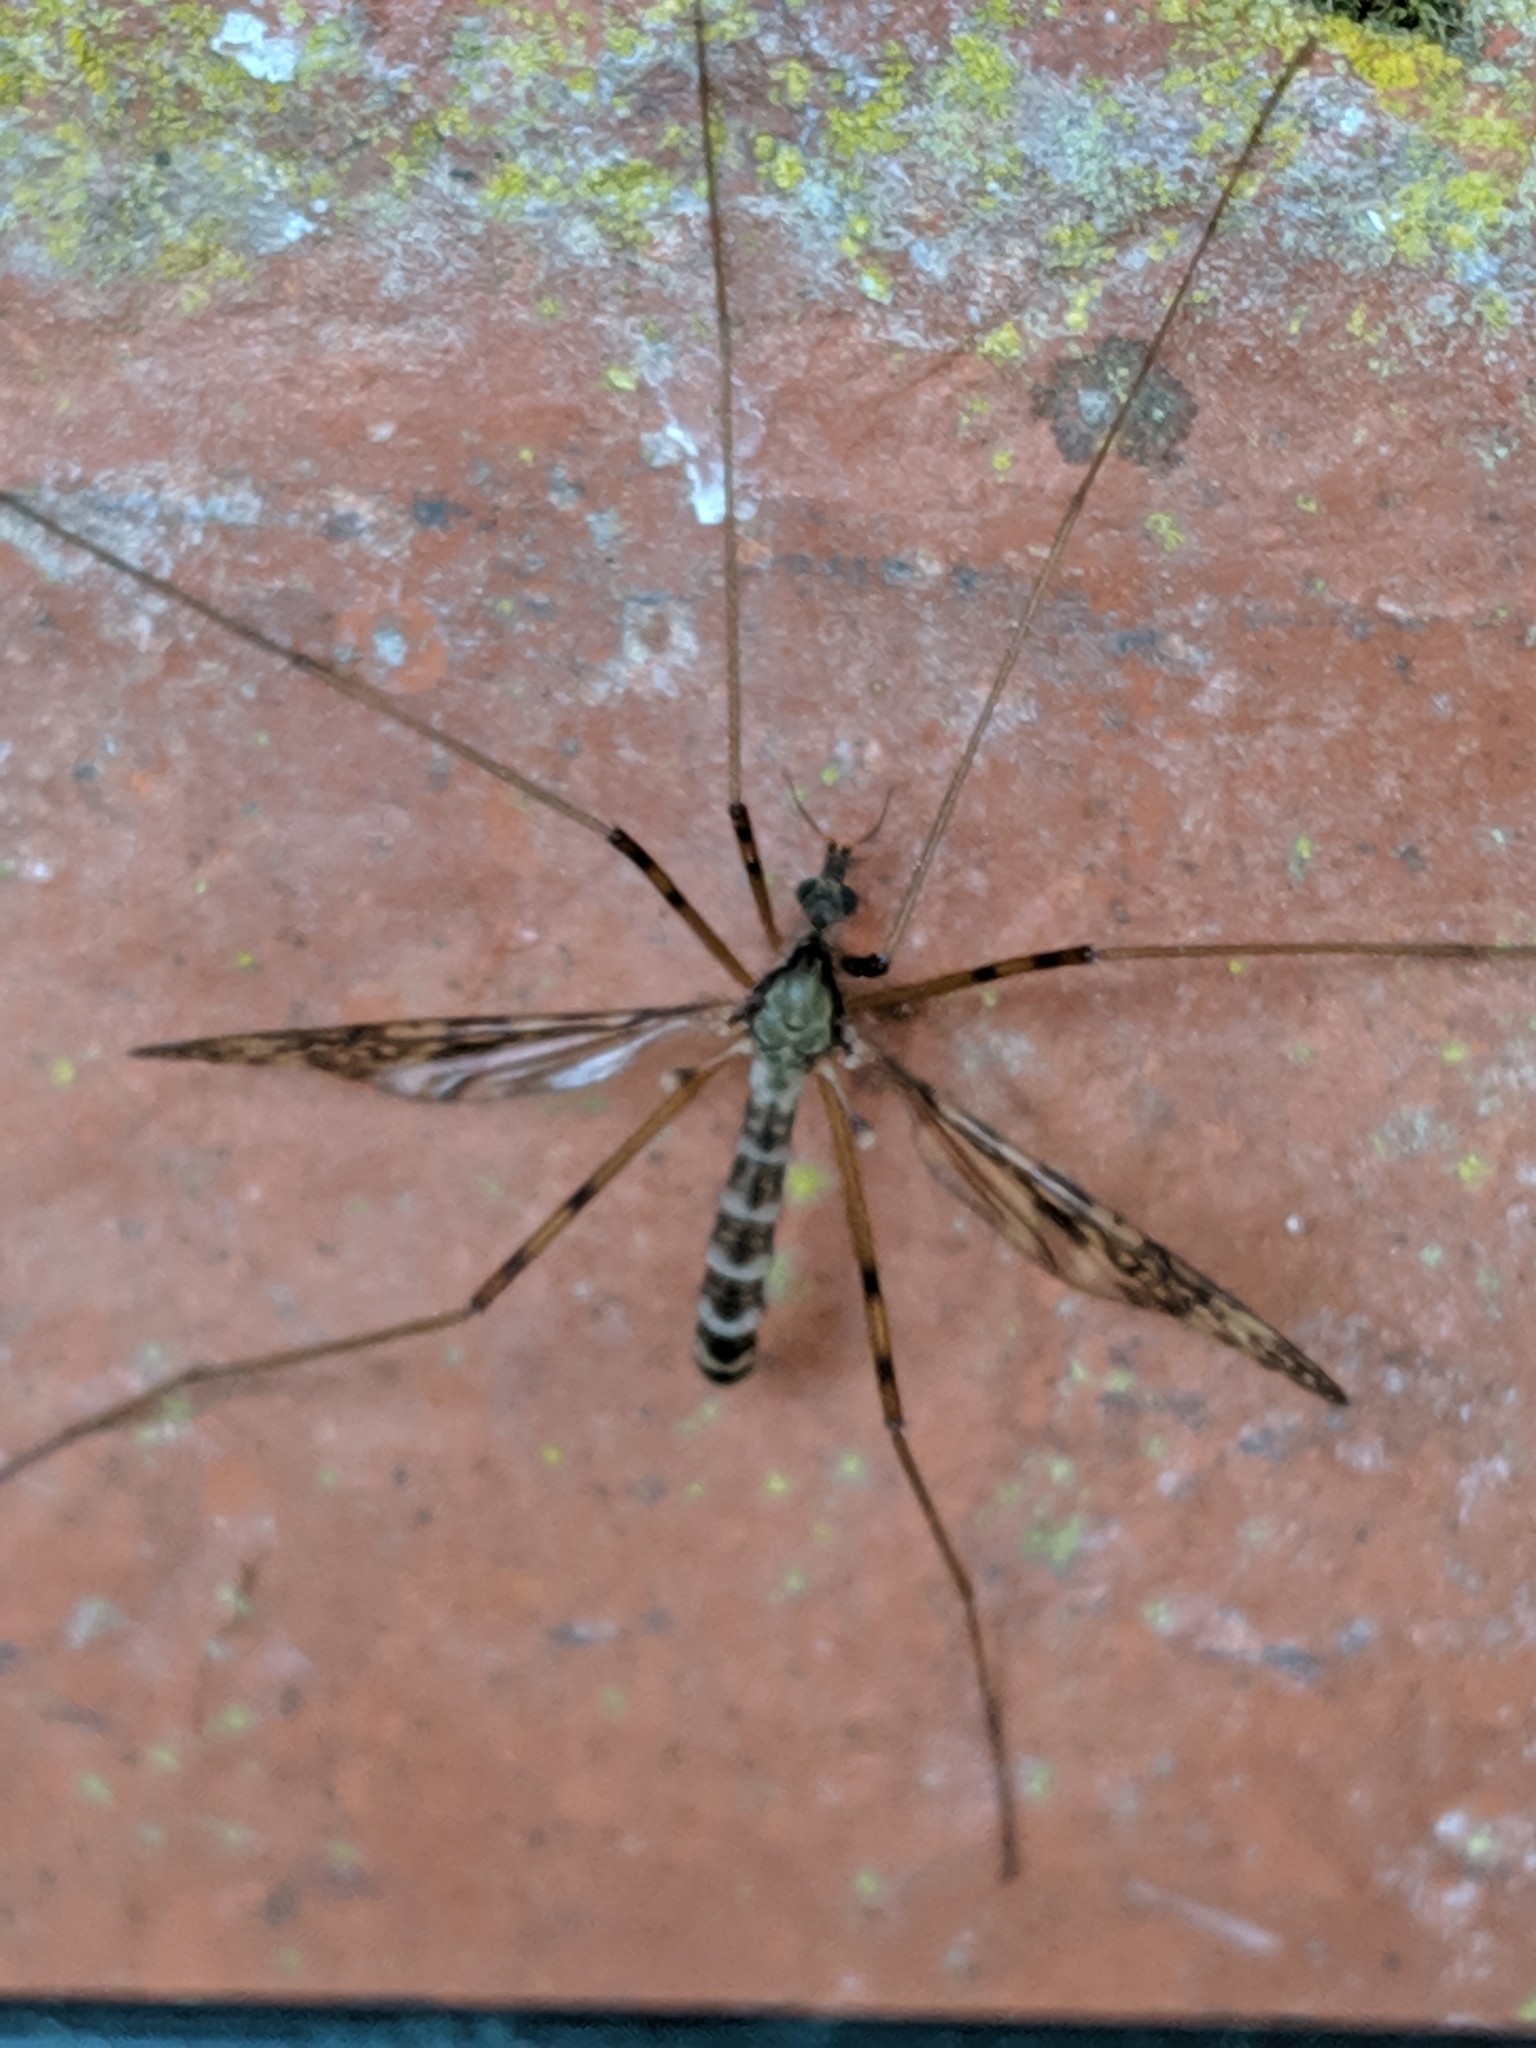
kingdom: Animalia
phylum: Arthropoda
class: Insecta
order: Diptera
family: Limoniidae
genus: Epiphragma
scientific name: Epiphragma ocellare
